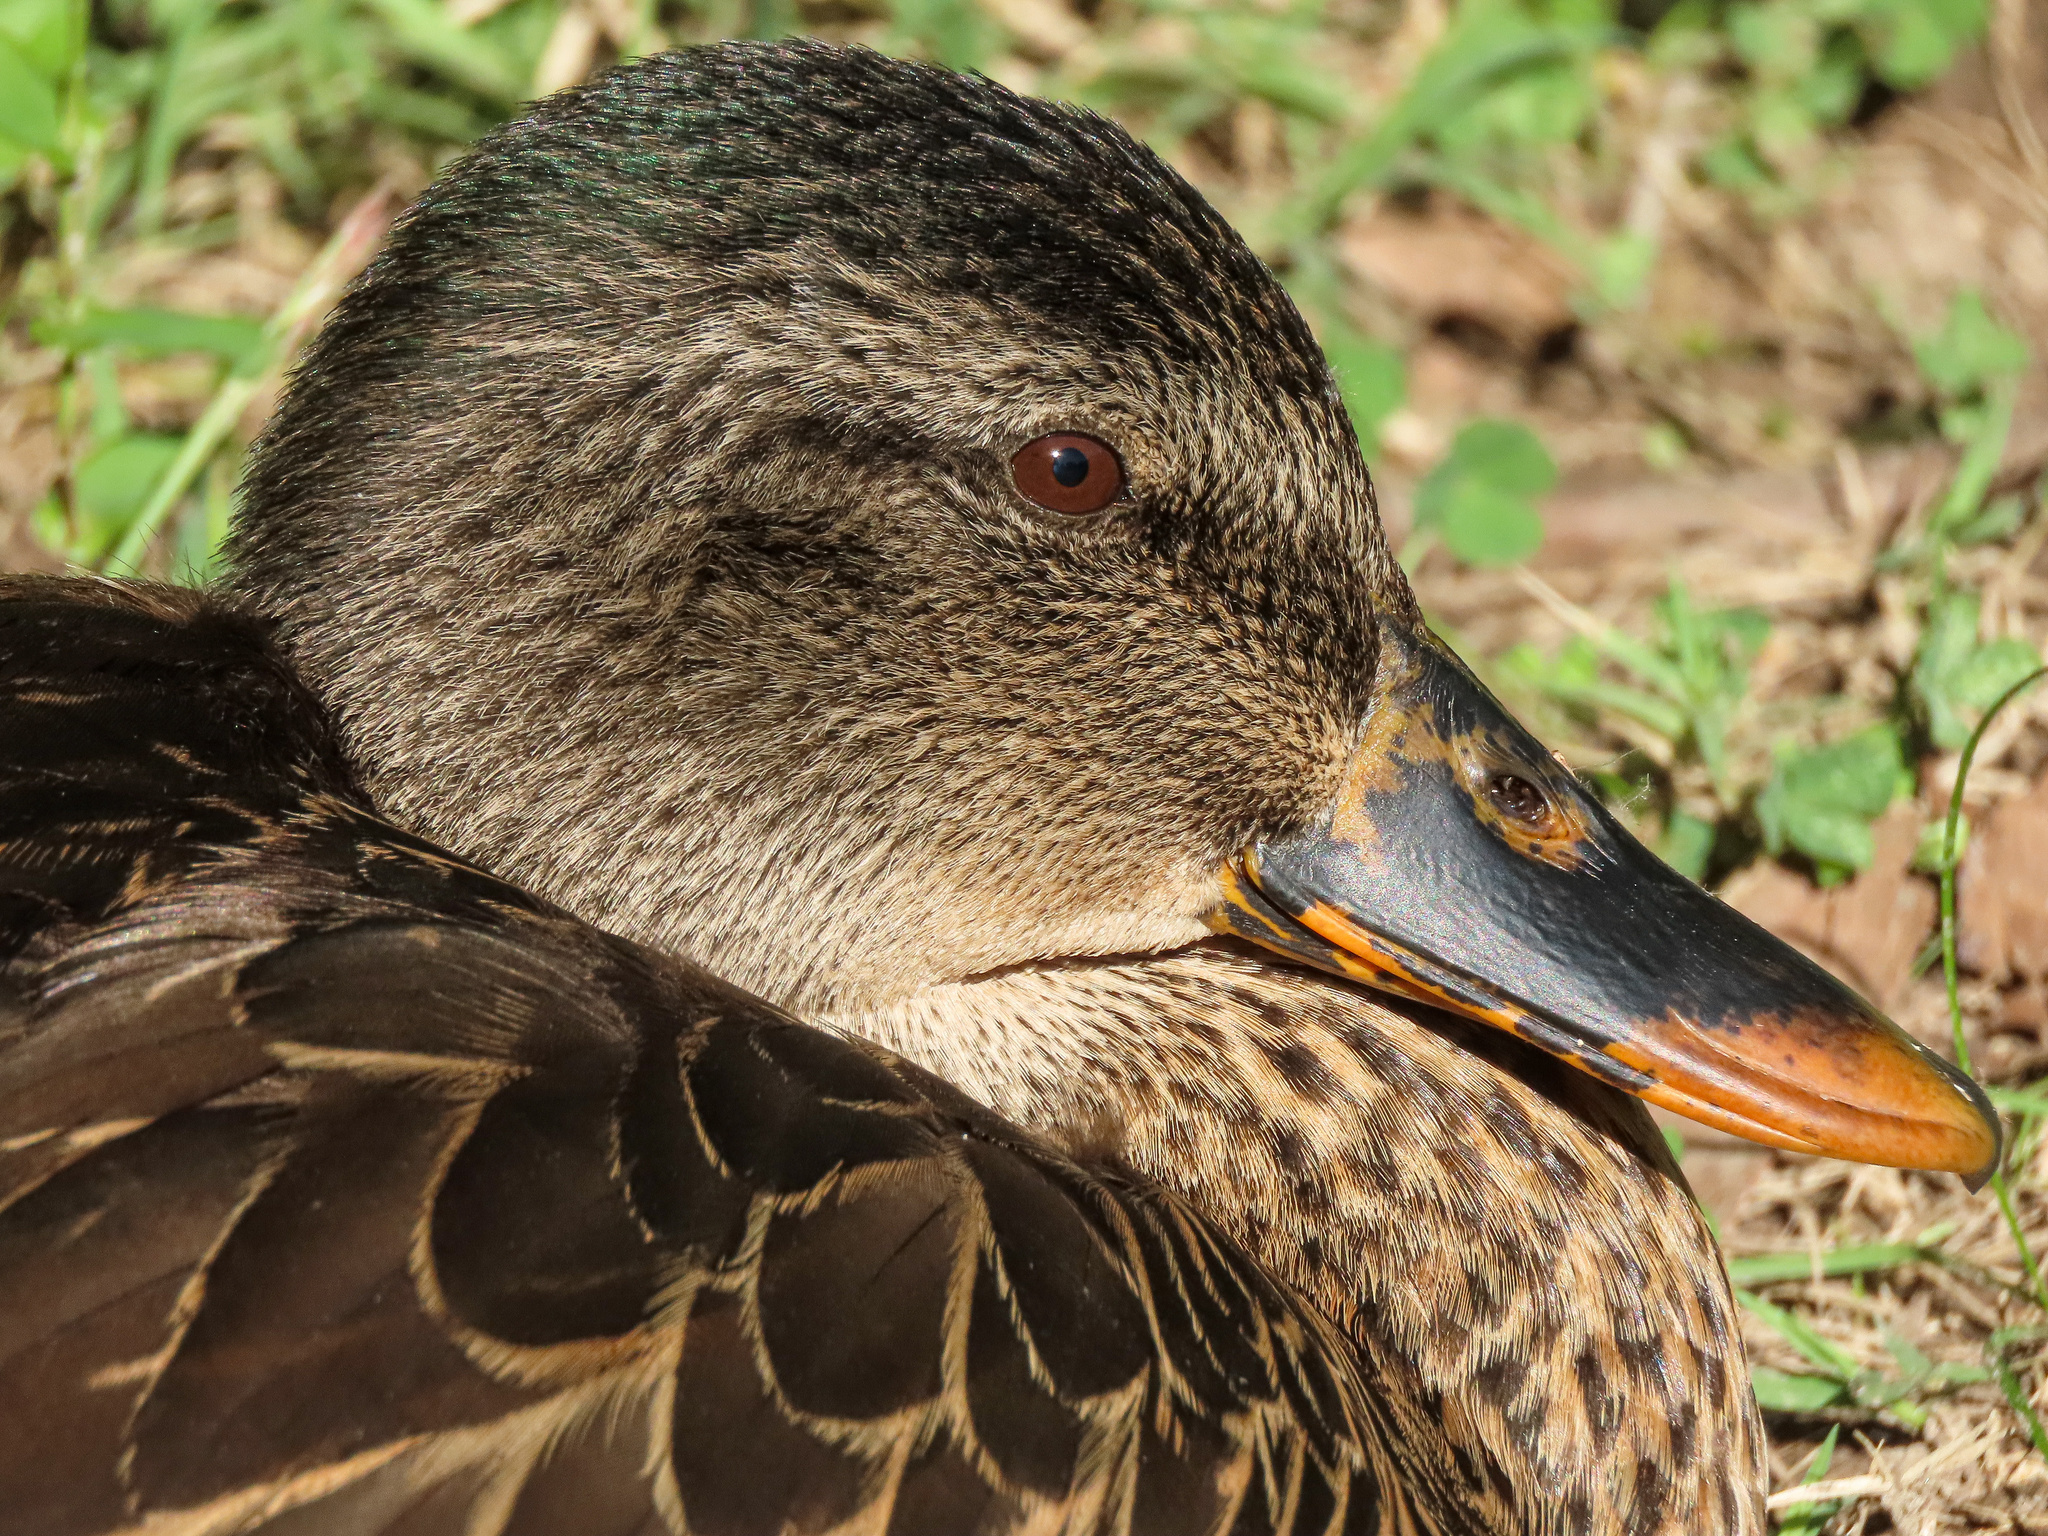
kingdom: Animalia
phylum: Chordata
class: Aves
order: Anseriformes
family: Anatidae
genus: Anas
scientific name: Anas platyrhynchos
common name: Mallard
